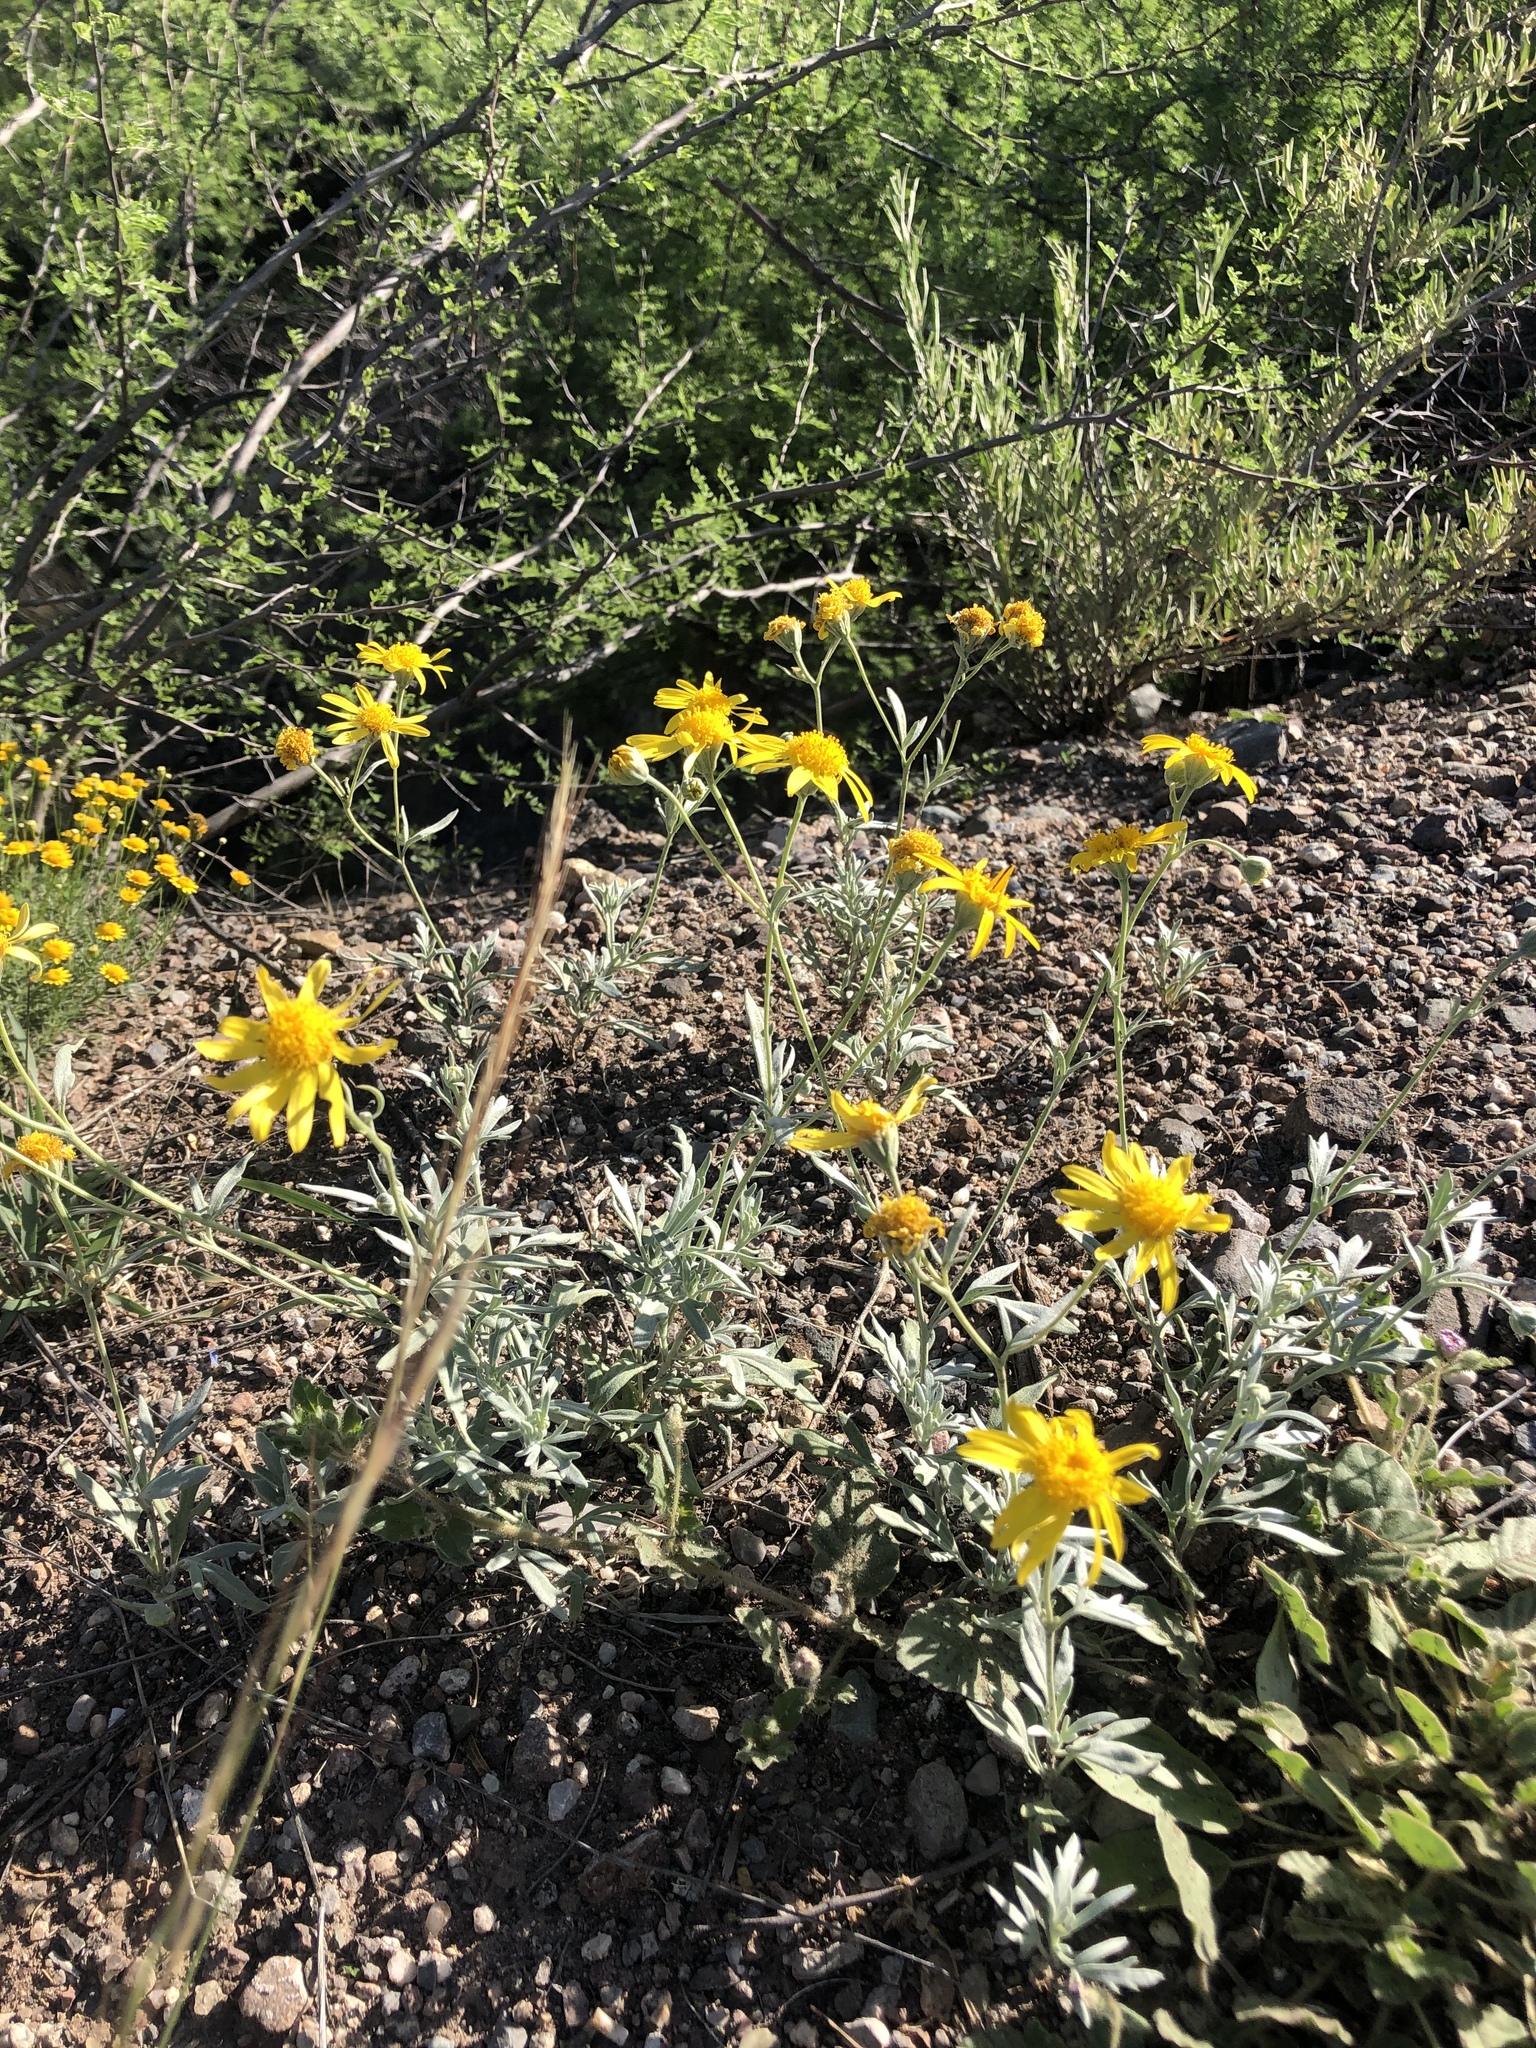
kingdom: Plantae
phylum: Tracheophyta
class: Magnoliopsida
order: Asterales
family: Asteraceae
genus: Picradeniopsis
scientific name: Picradeniopsis absinthifolia
